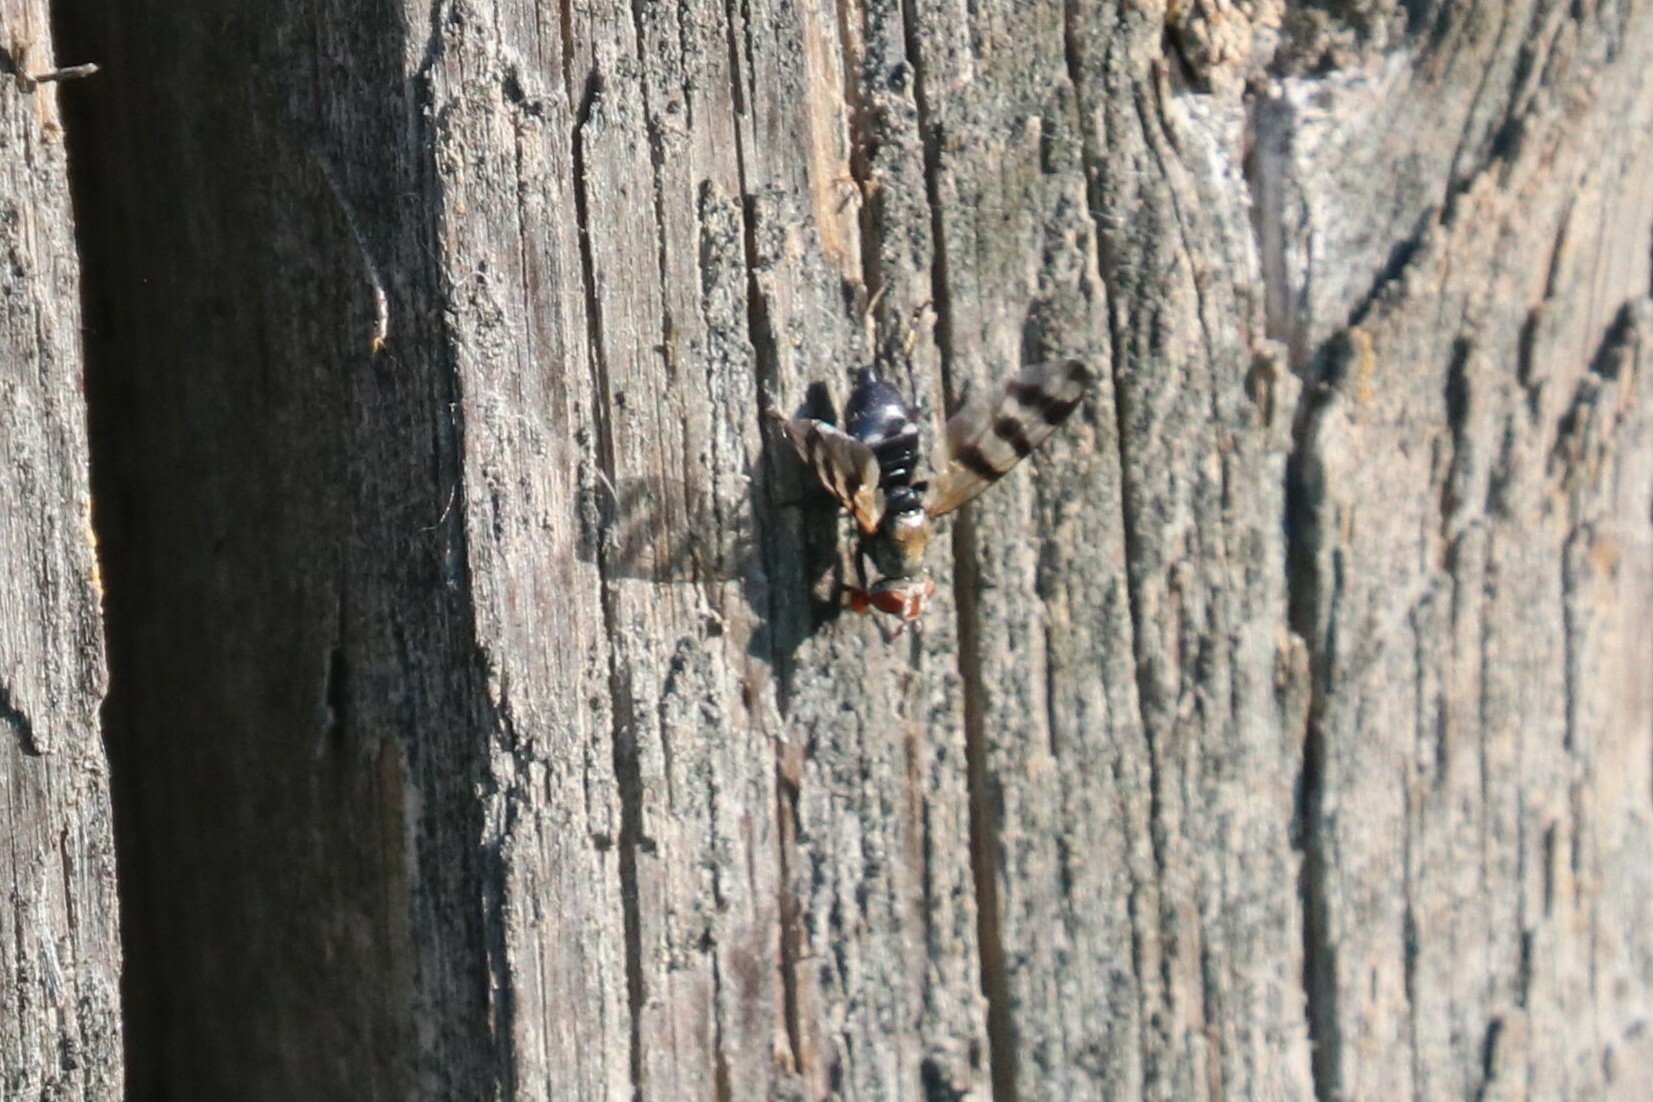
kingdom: Animalia
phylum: Arthropoda
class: Insecta
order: Diptera
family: Ulidiidae
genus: Ceroxys
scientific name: Ceroxys urticae
